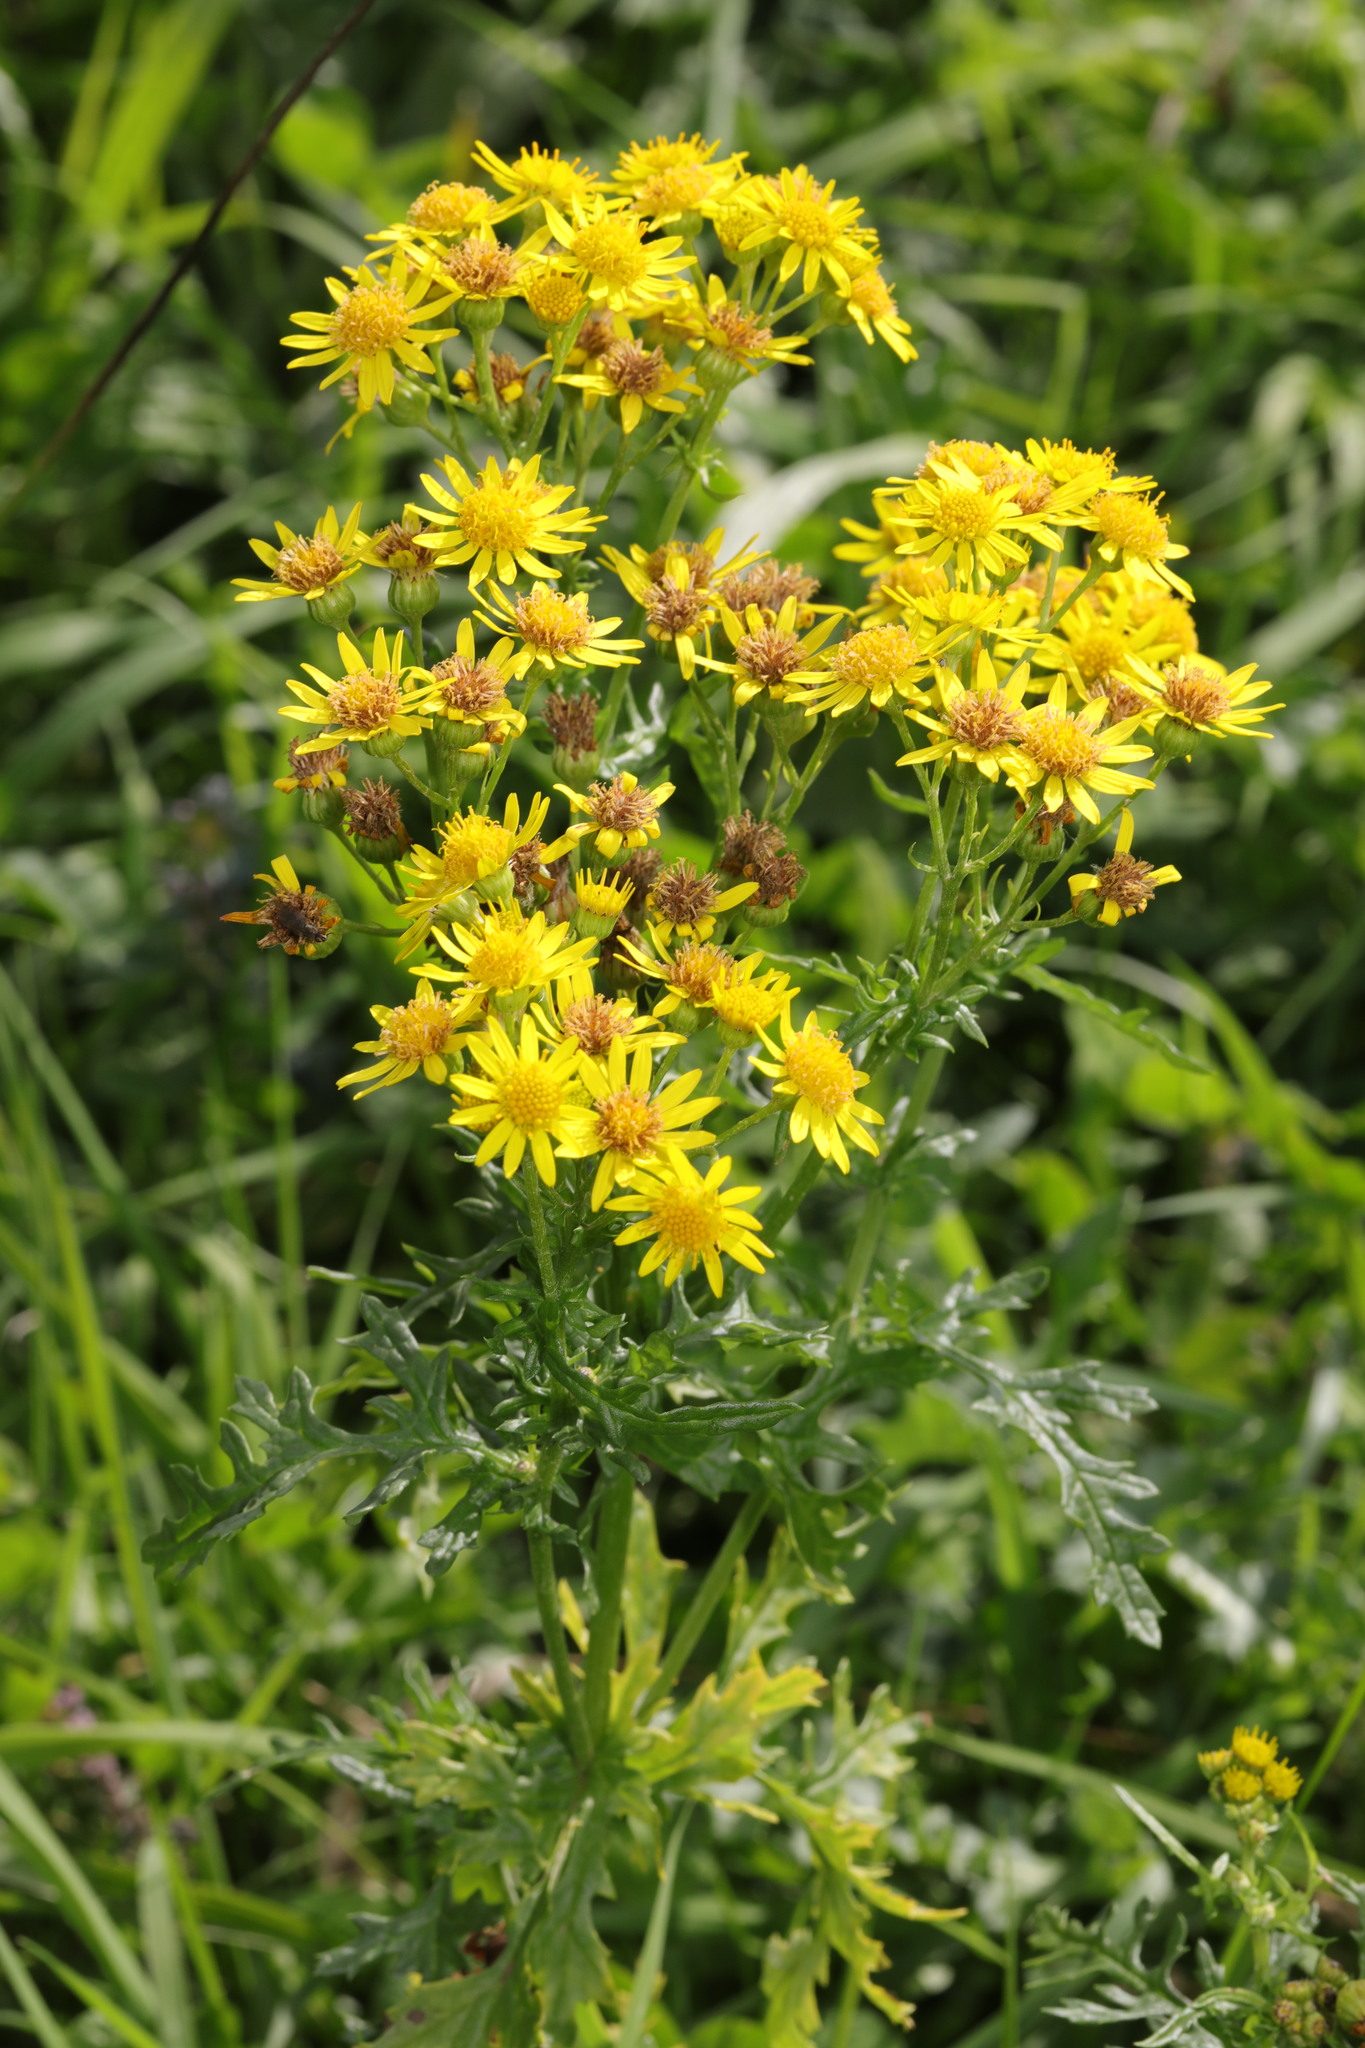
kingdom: Plantae
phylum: Tracheophyta
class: Magnoliopsida
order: Asterales
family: Asteraceae
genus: Jacobaea
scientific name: Jacobaea vulgaris
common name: Stinking willie
